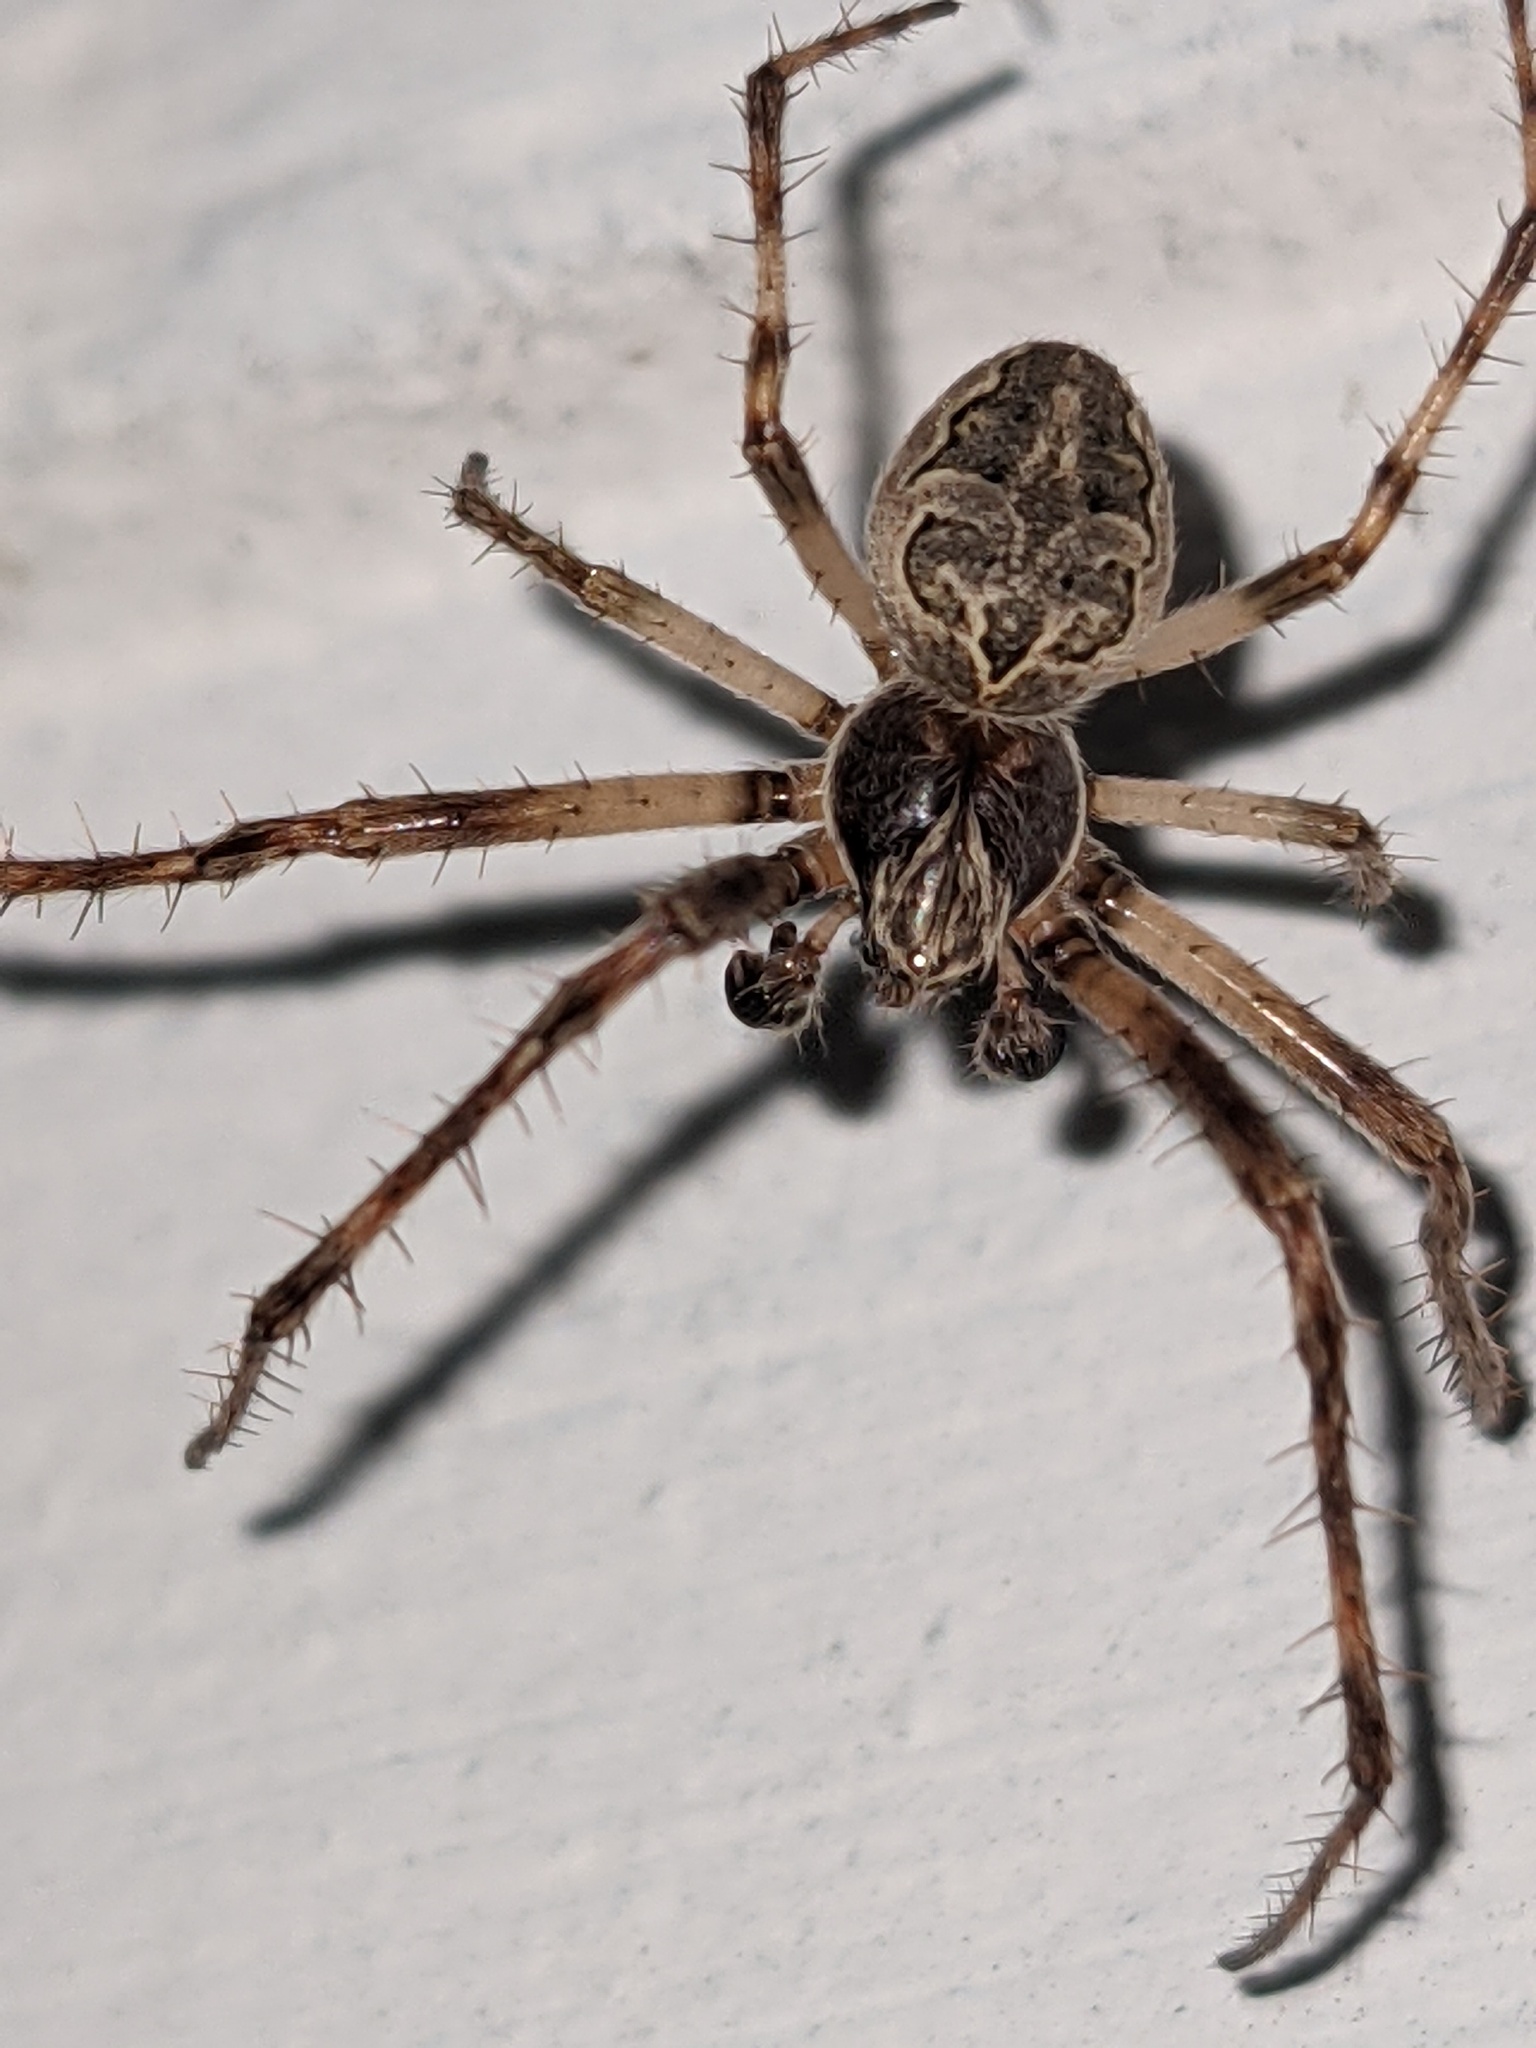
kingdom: Animalia
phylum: Arthropoda
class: Arachnida
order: Araneae
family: Araneidae
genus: Larinioides
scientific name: Larinioides sclopetarius
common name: Bridge orbweaver
